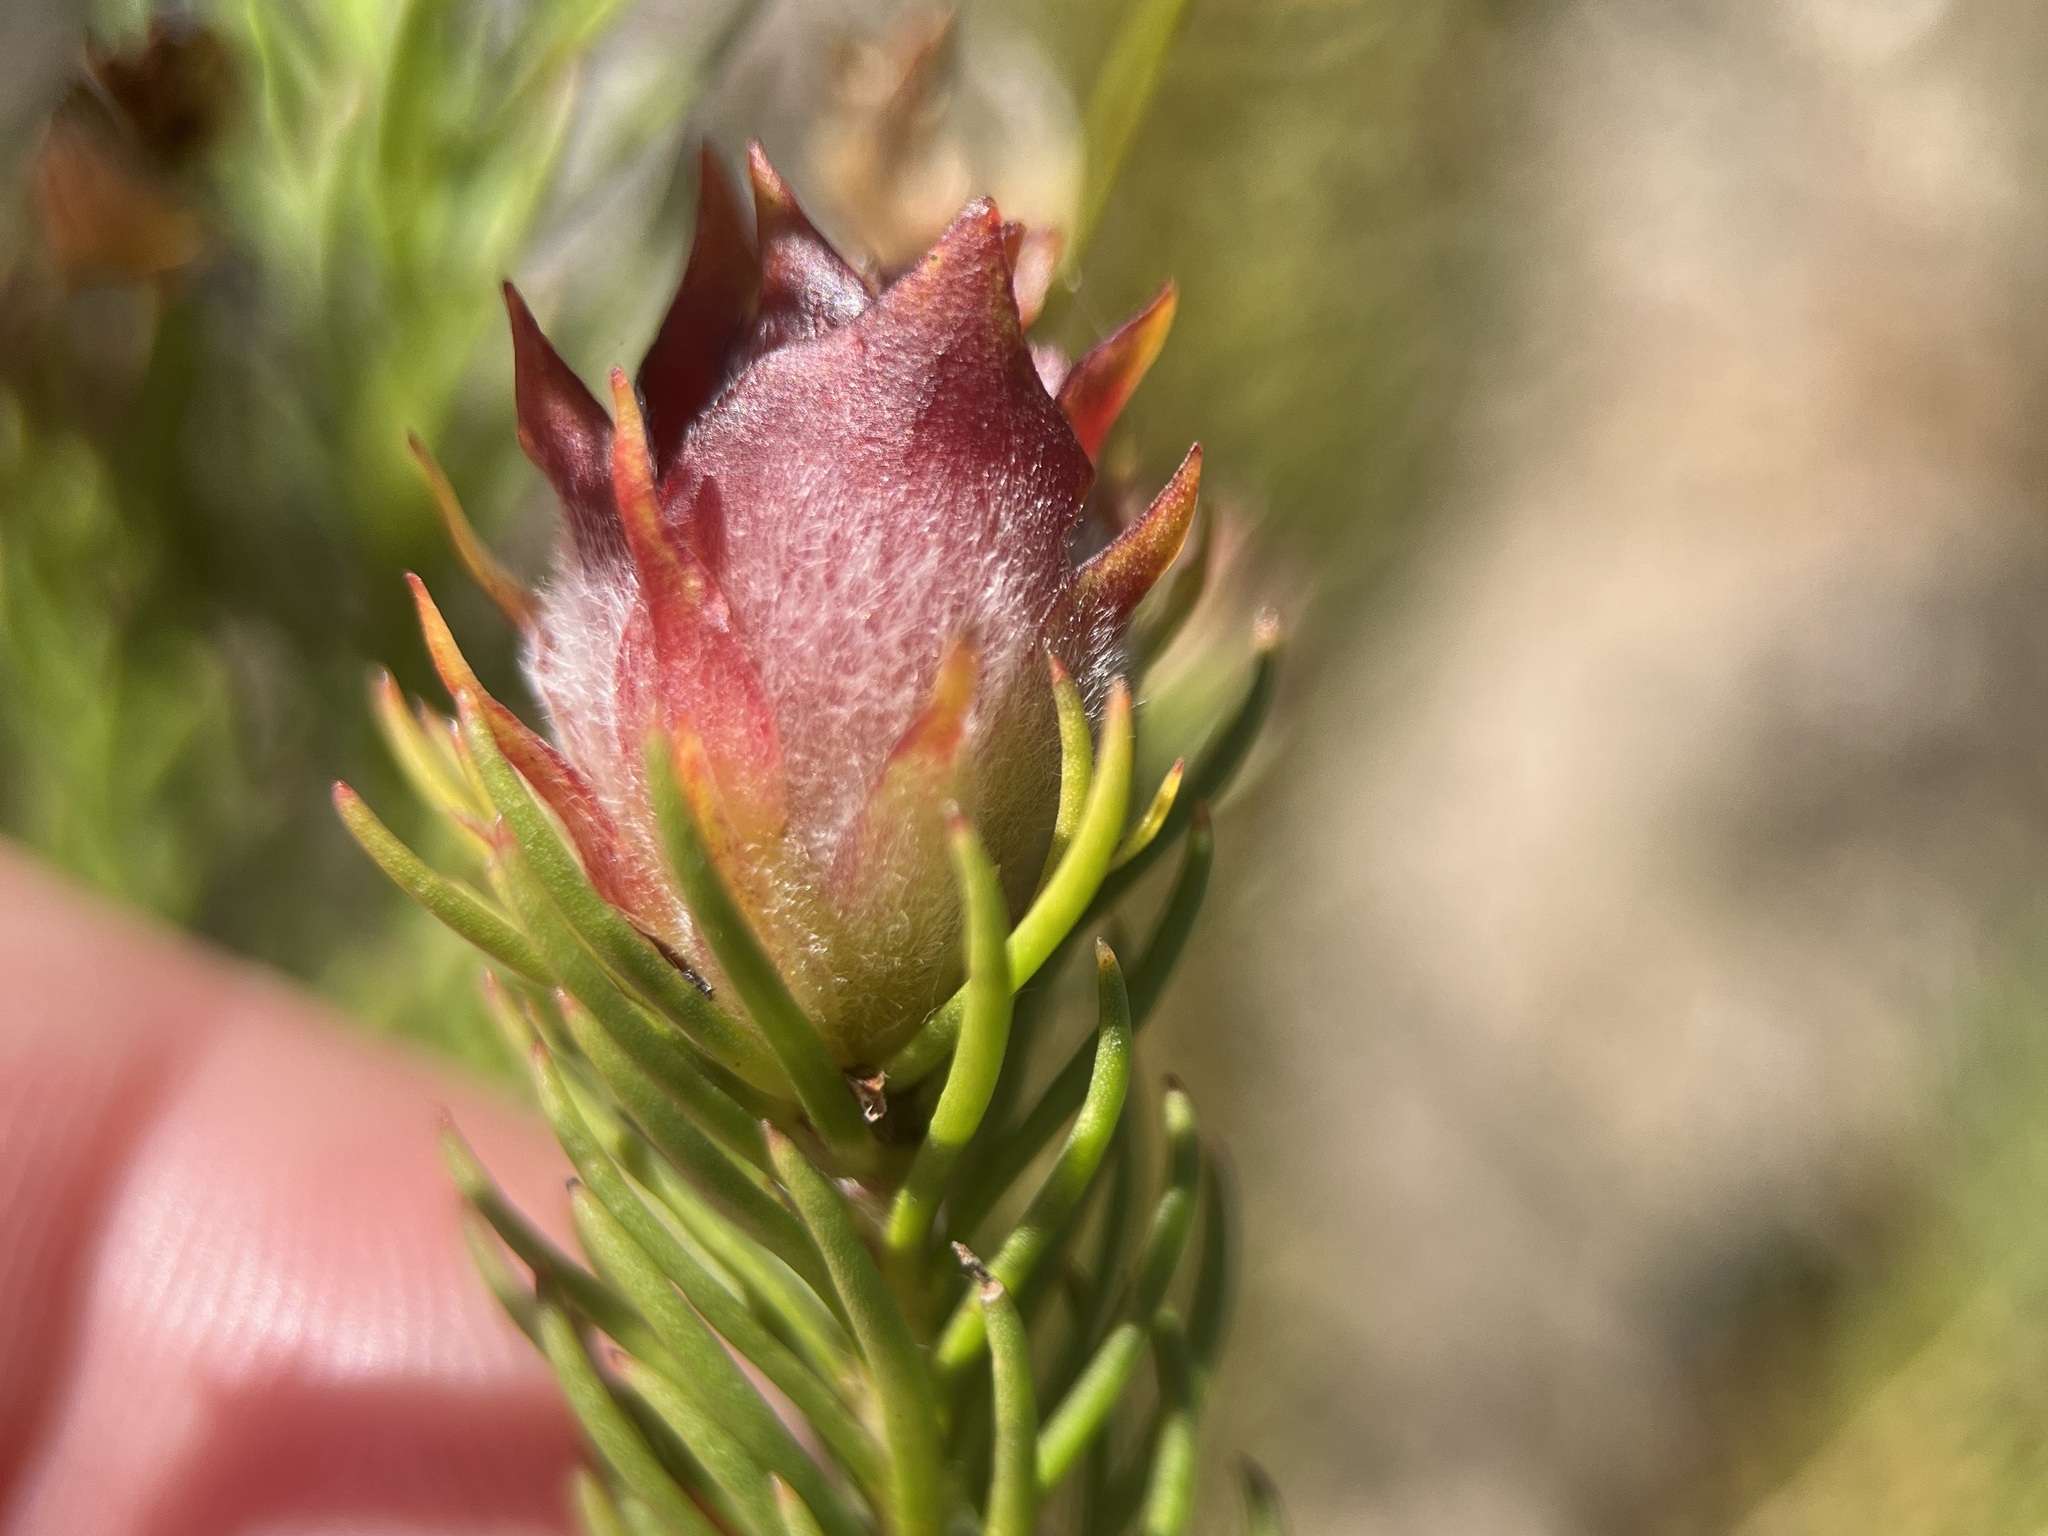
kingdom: Plantae
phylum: Tracheophyta
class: Magnoliopsida
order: Proteales
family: Proteaceae
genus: Leucadendron
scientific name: Leucadendron laxum
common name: Bredasdorp conebush
